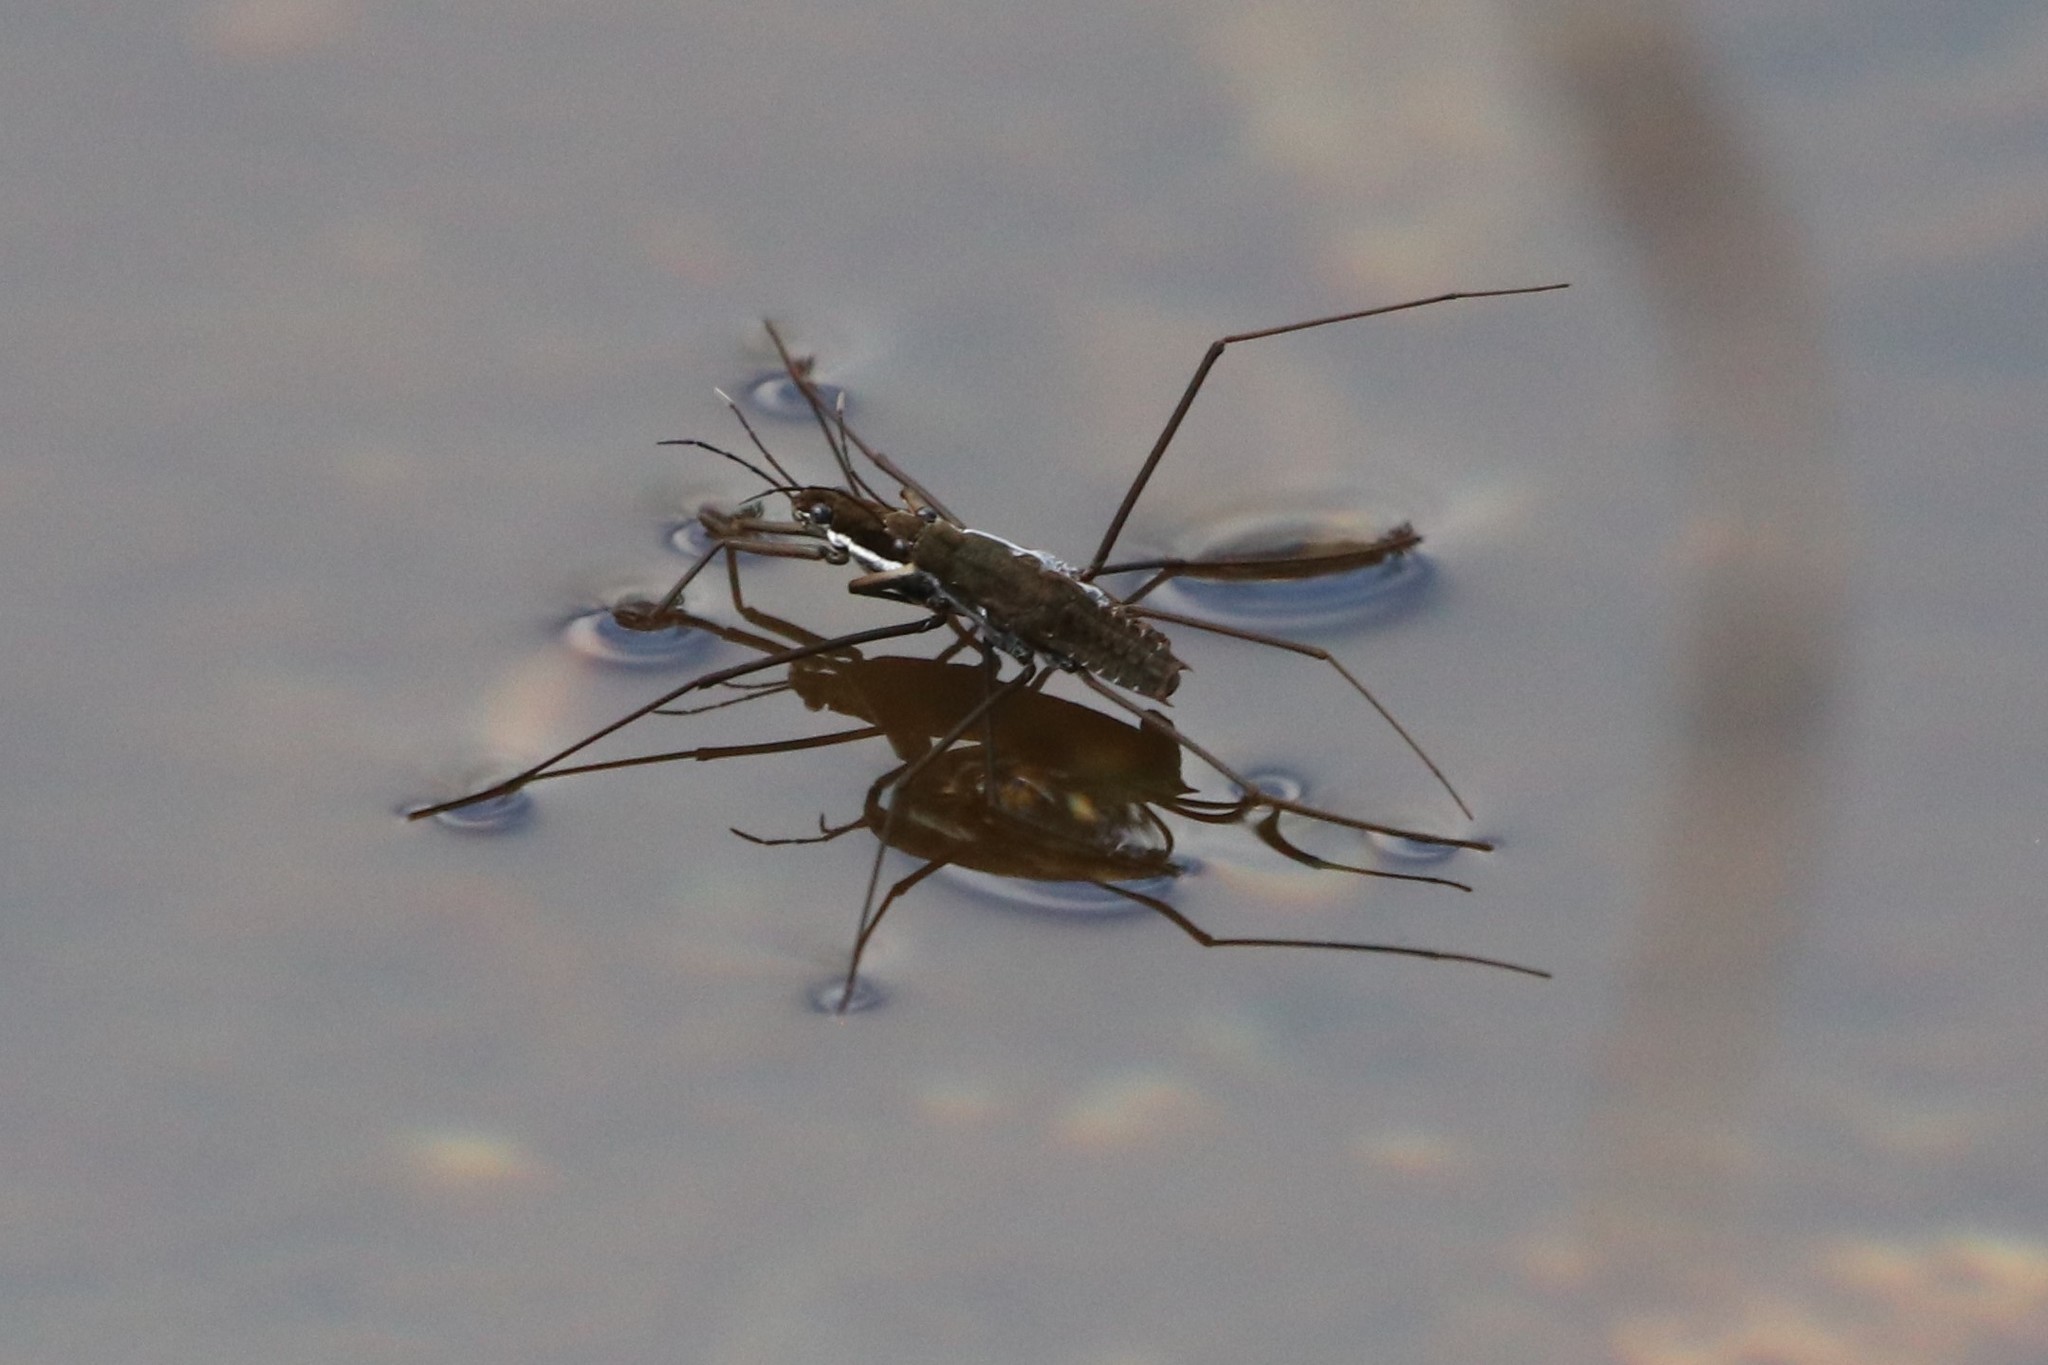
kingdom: Animalia
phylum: Arthropoda
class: Insecta
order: Hemiptera
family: Gerridae
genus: Aquarius
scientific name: Aquarius remigis
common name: Common water strider
